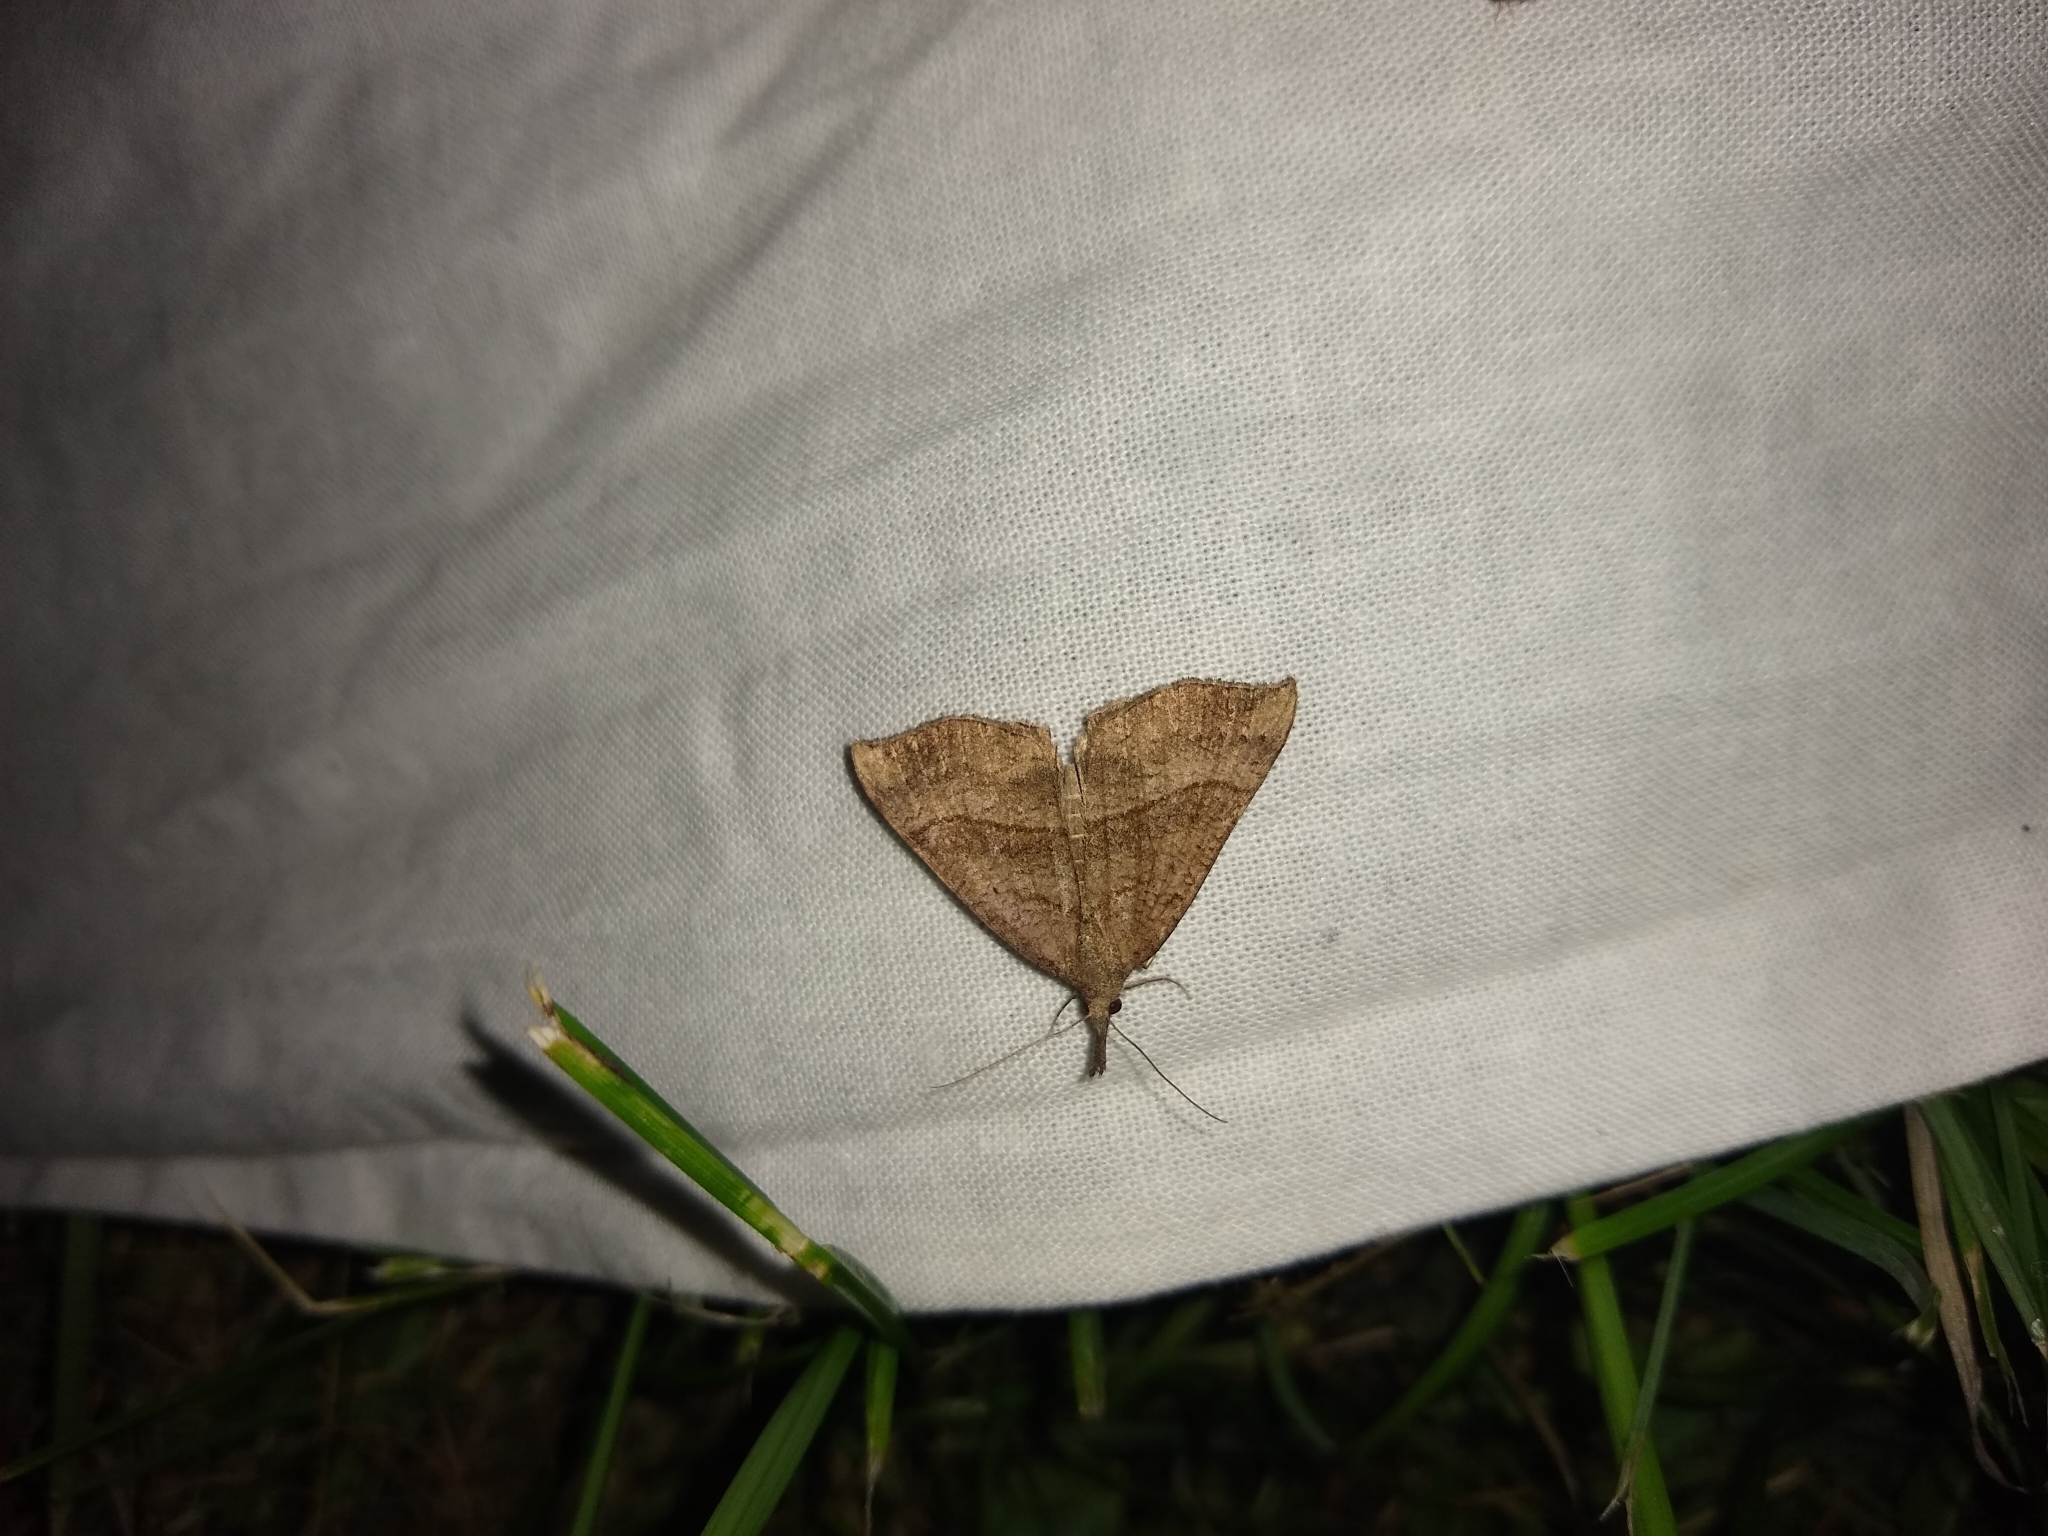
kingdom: Animalia
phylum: Arthropoda
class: Insecta
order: Lepidoptera
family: Erebidae
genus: Hypena
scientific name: Hypena proboscidalis
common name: Snout
